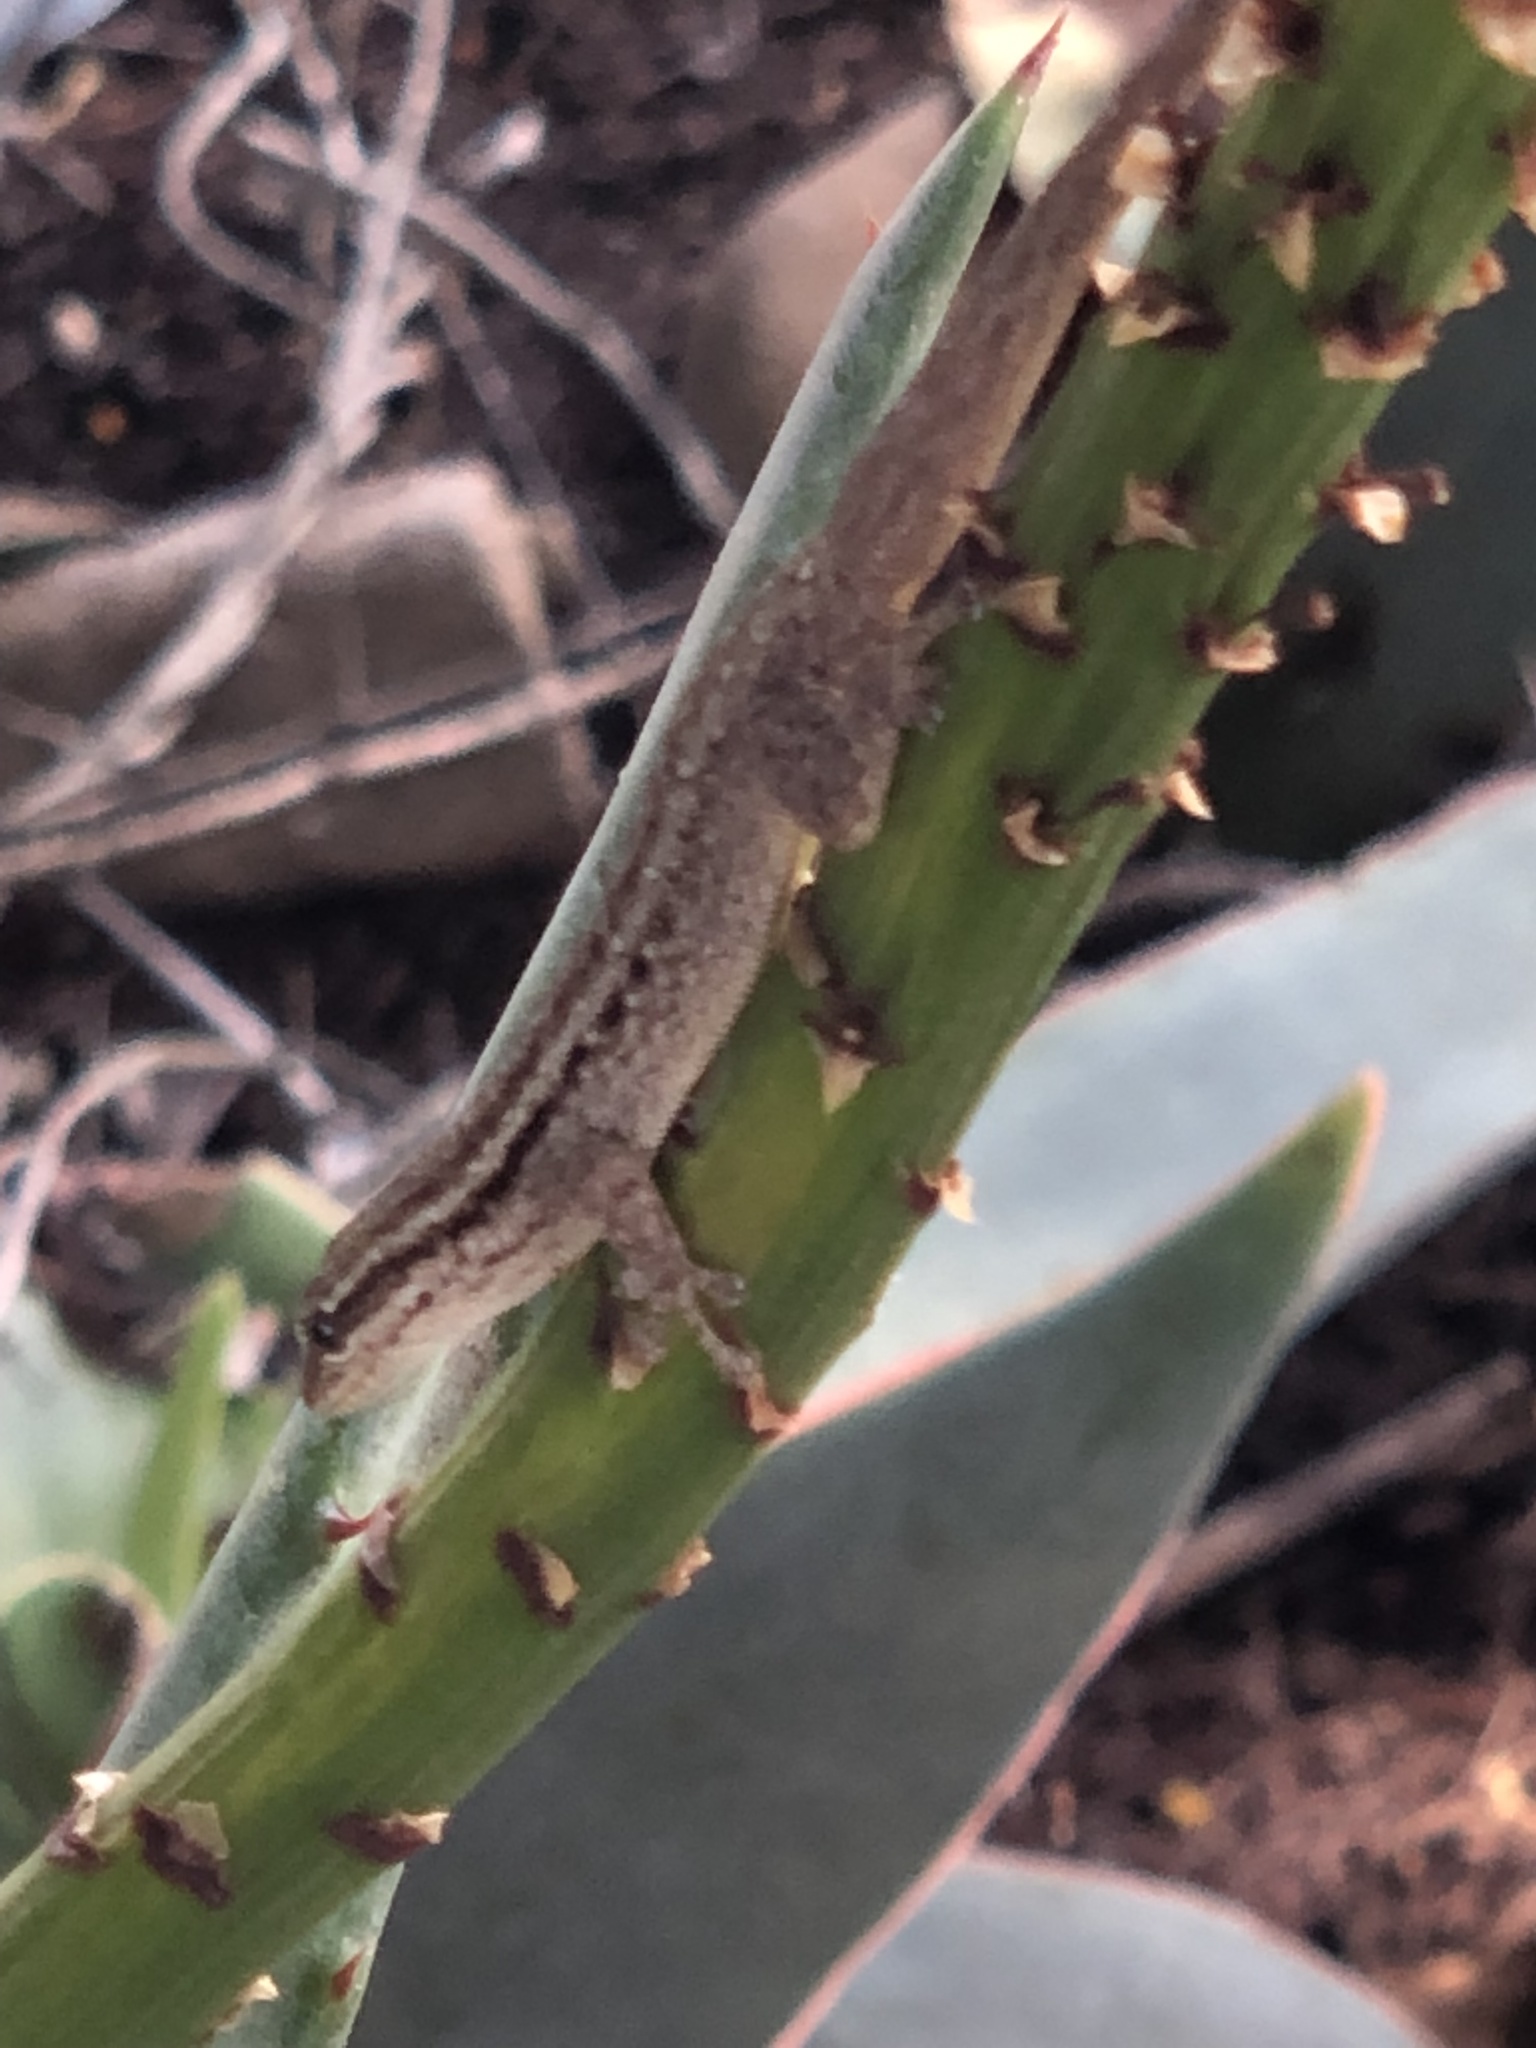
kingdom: Animalia
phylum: Chordata
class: Squamata
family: Gekkonidae
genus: Lygodactylus
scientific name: Lygodactylus capensis
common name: Cape dwarf gecko
